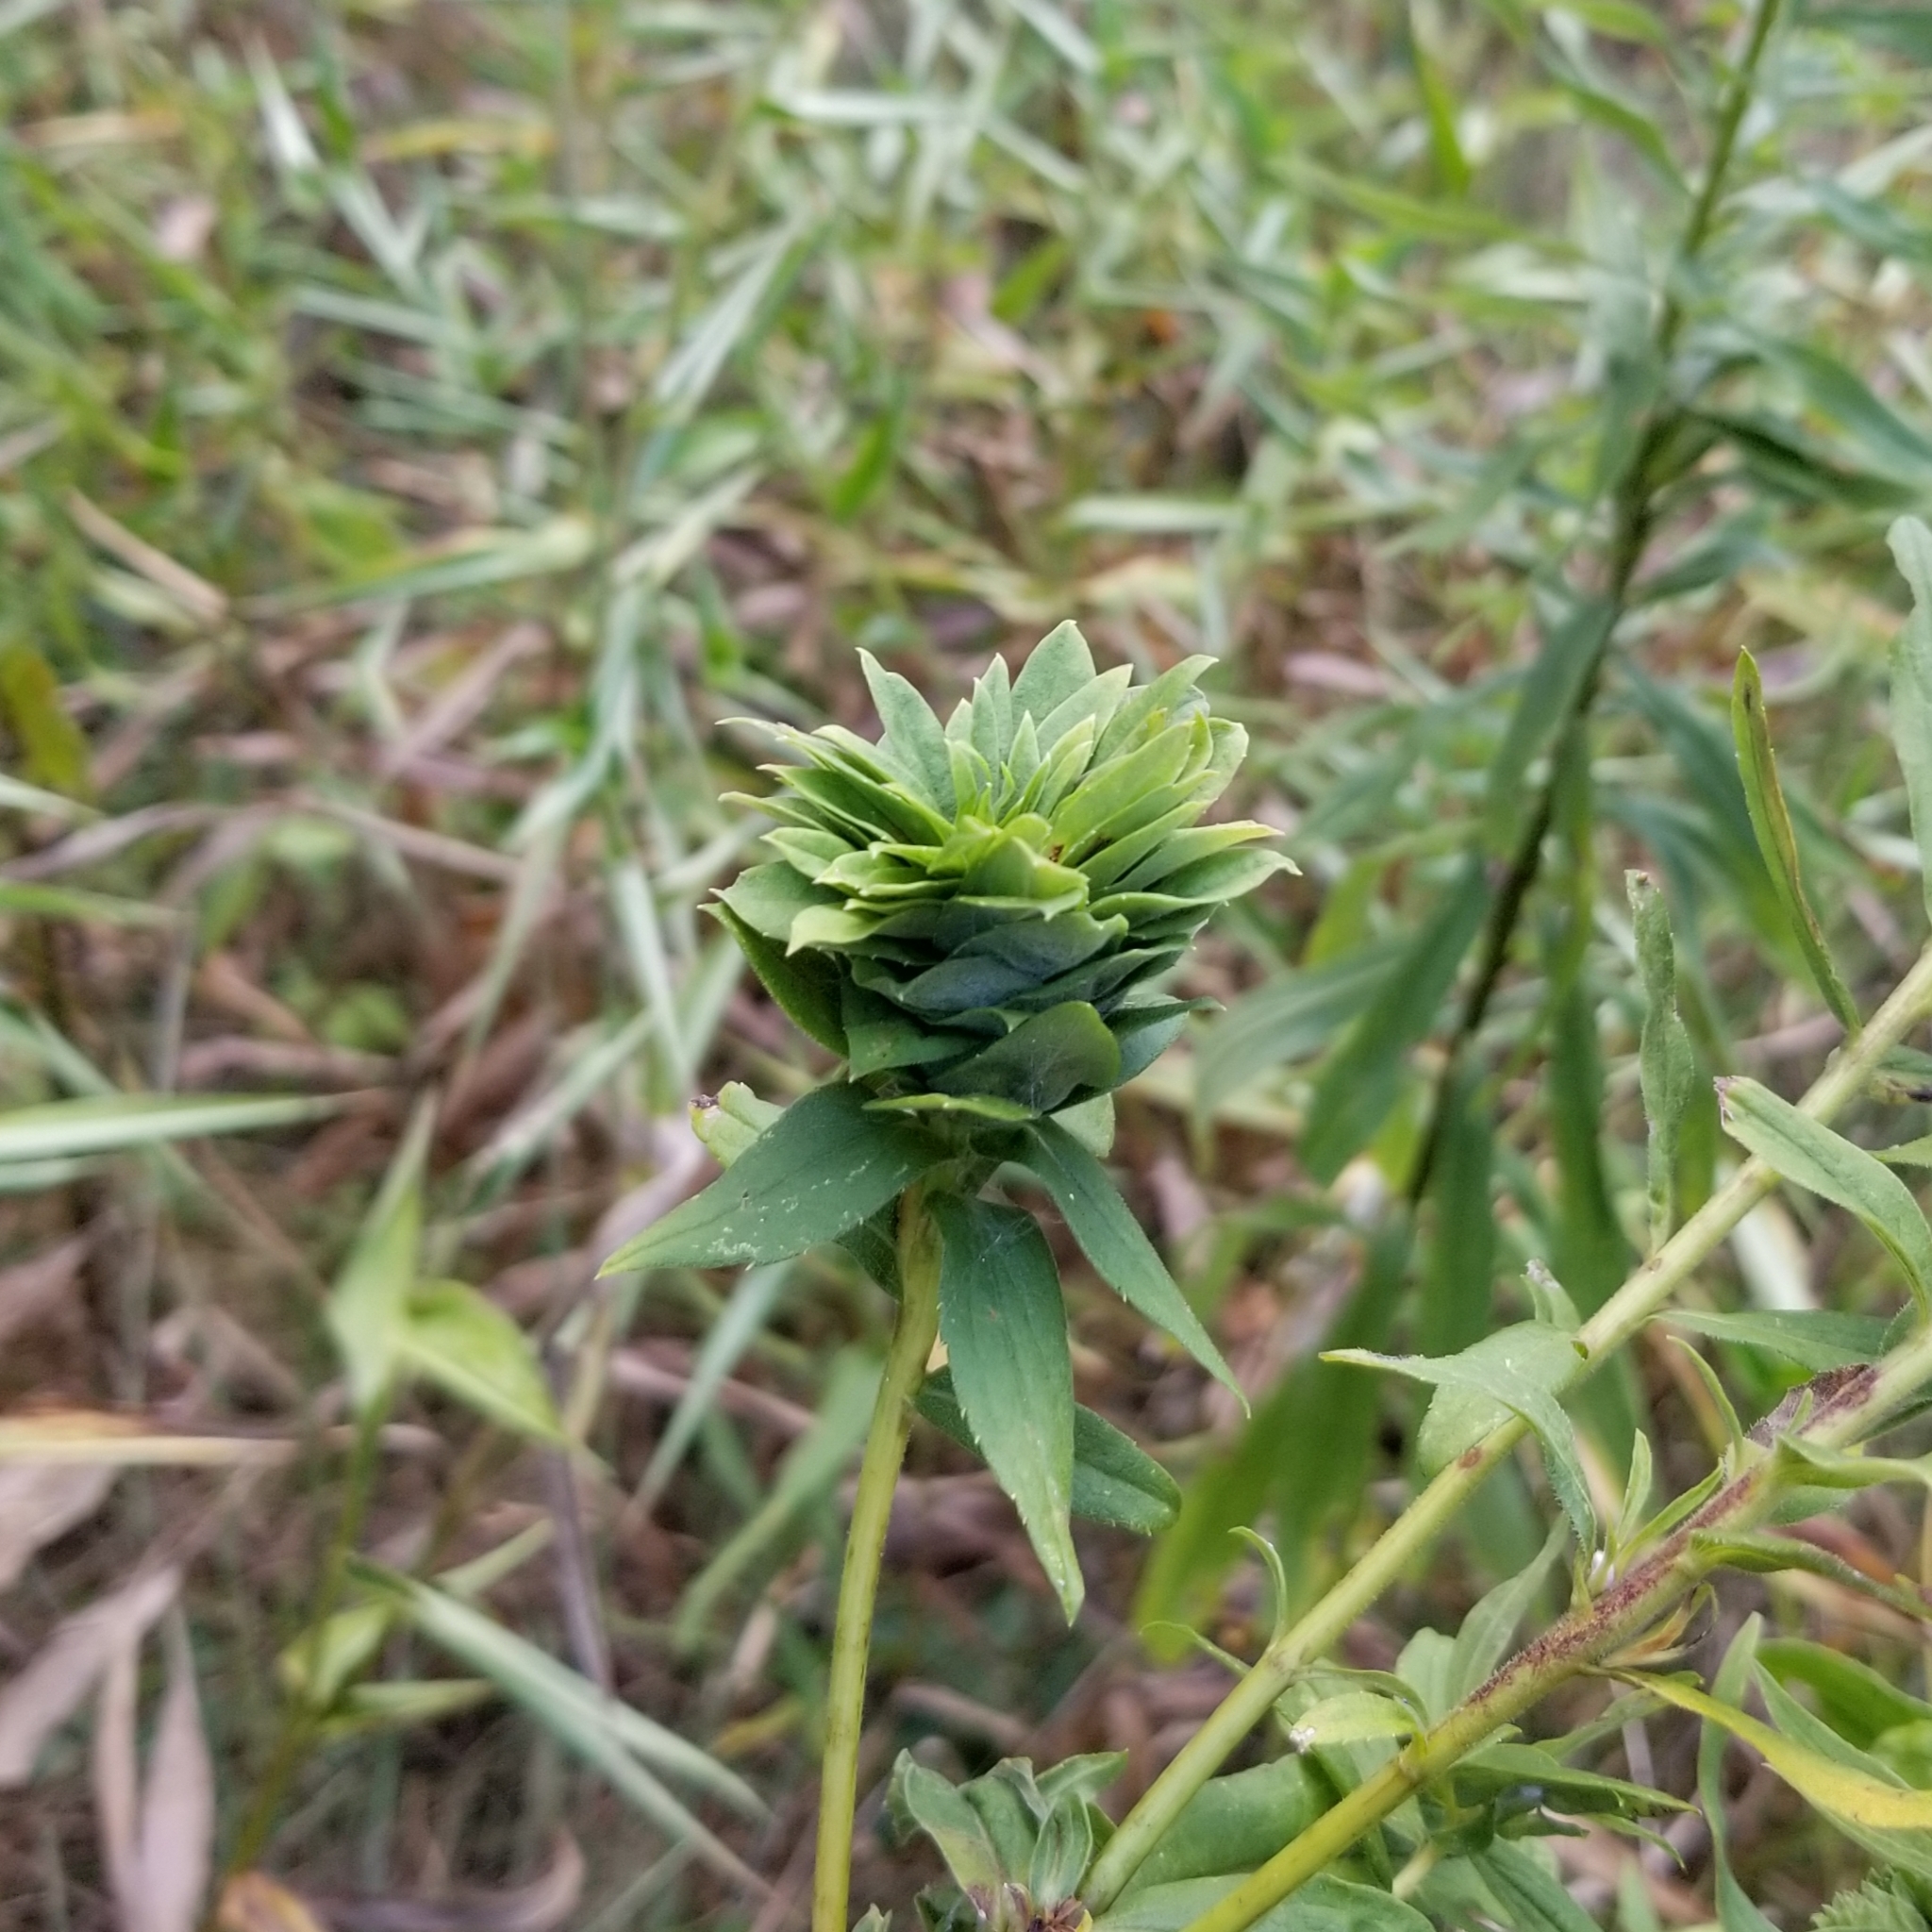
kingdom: Animalia
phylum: Arthropoda
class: Insecta
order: Diptera
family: Cecidomyiidae
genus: Rhopalomyia
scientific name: Rhopalomyia solidaginis
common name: Goldenrod bunch gall midge
